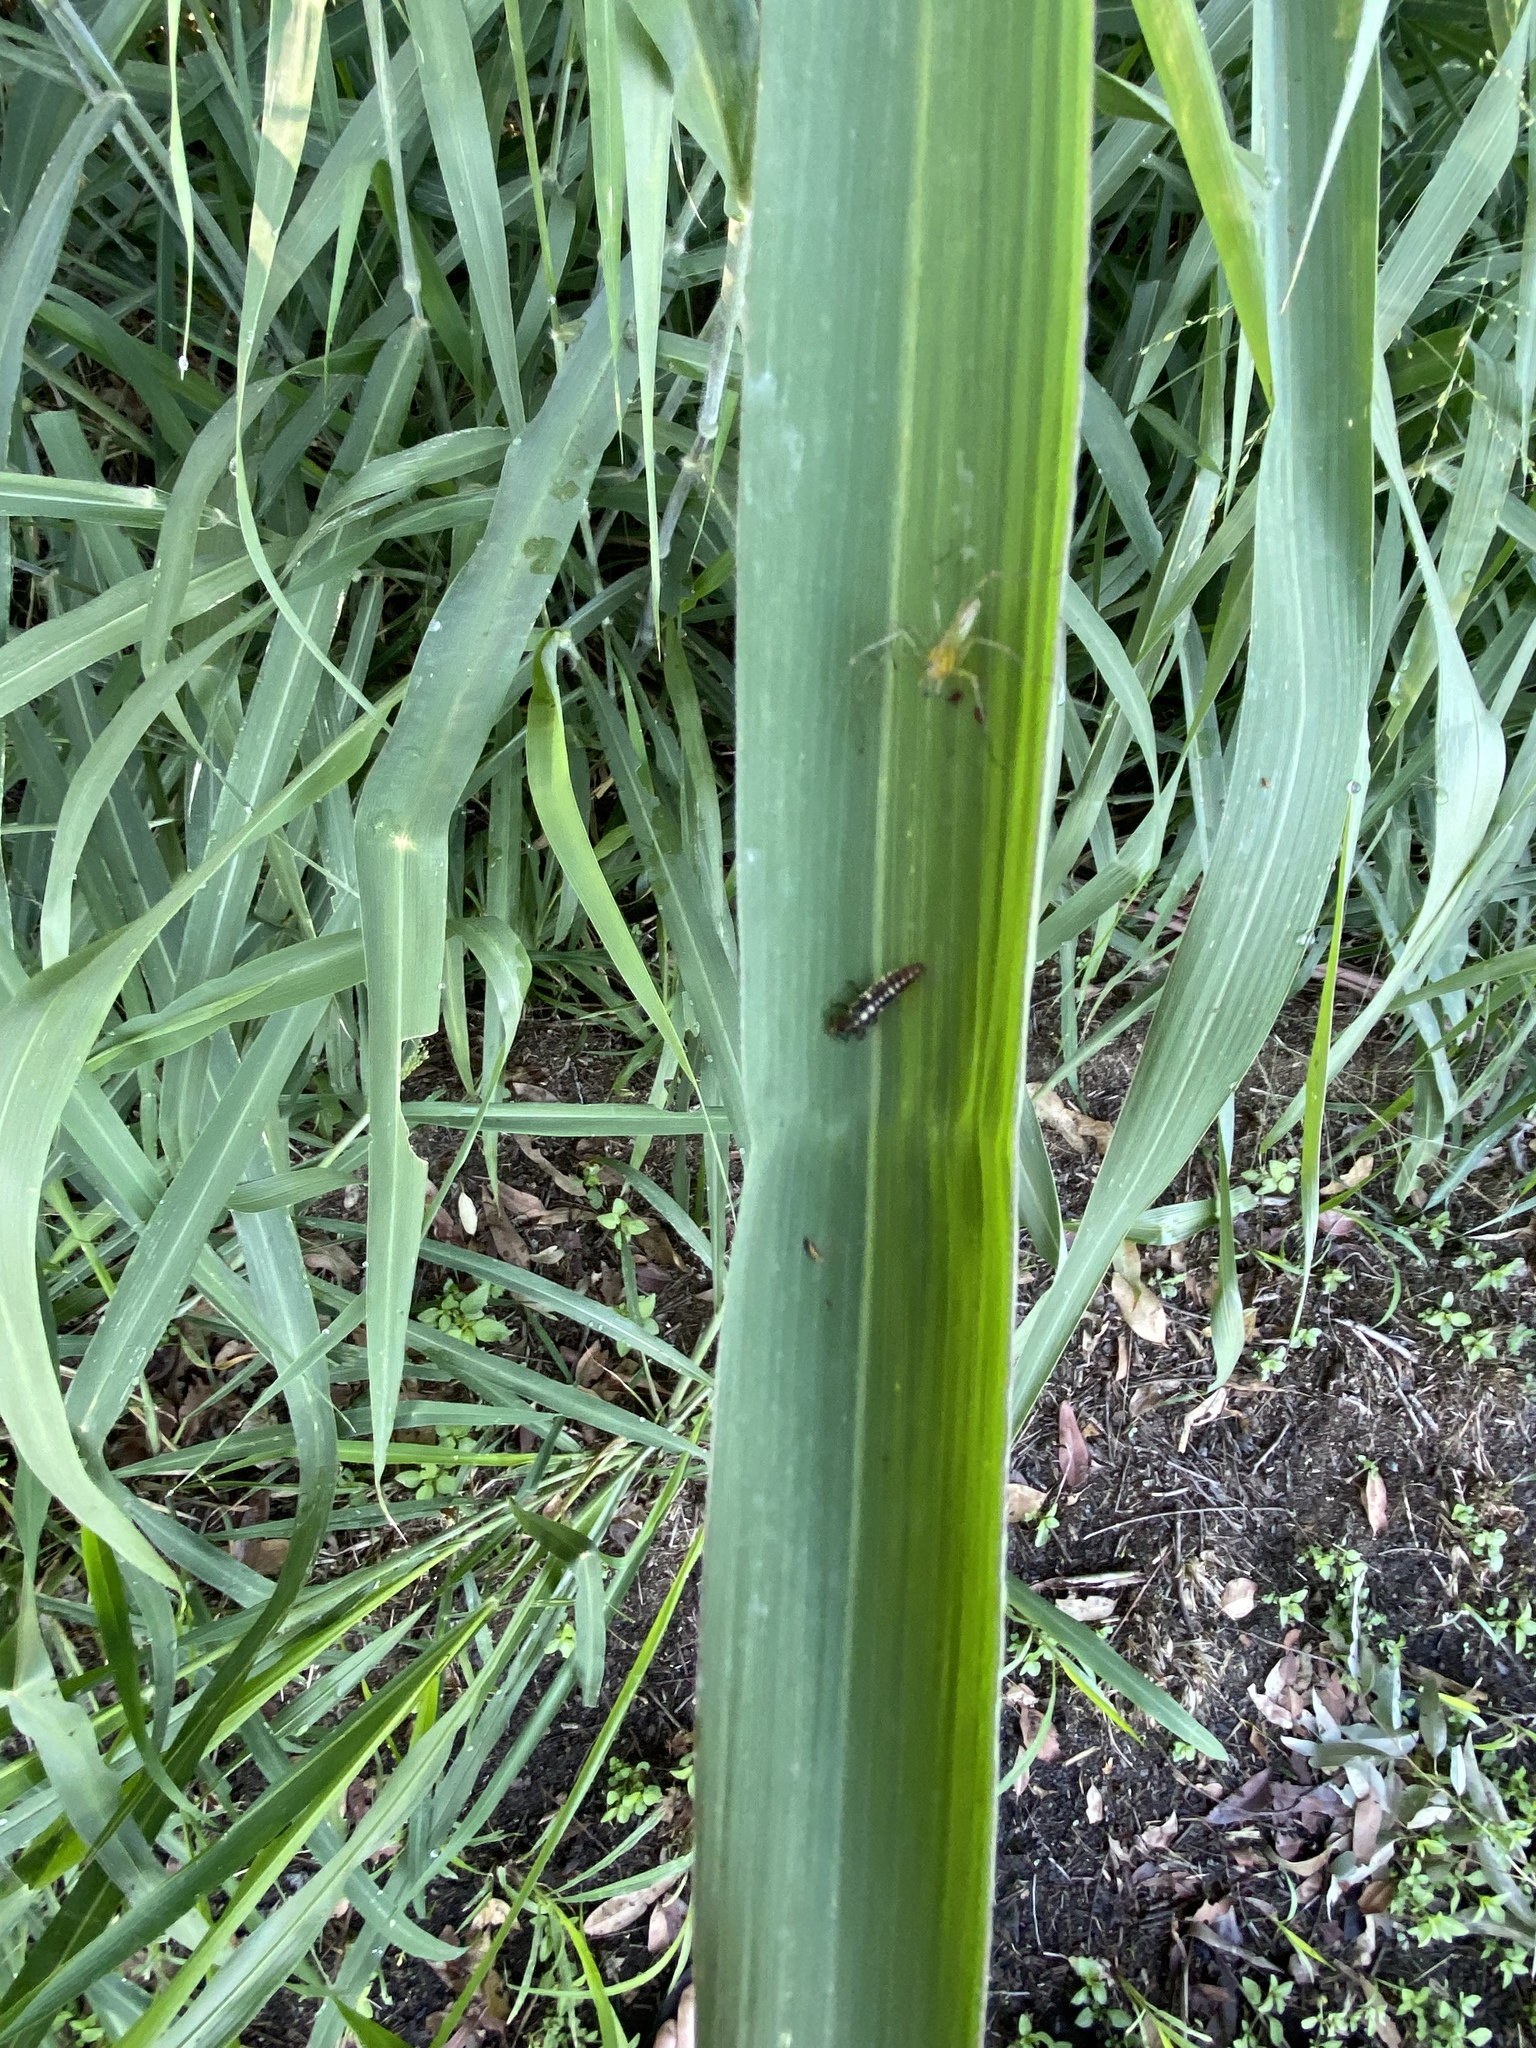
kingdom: Animalia
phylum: Arthropoda
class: Insecta
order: Coleoptera
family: Coccinellidae
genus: Micraspis
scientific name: Micraspis frenata
